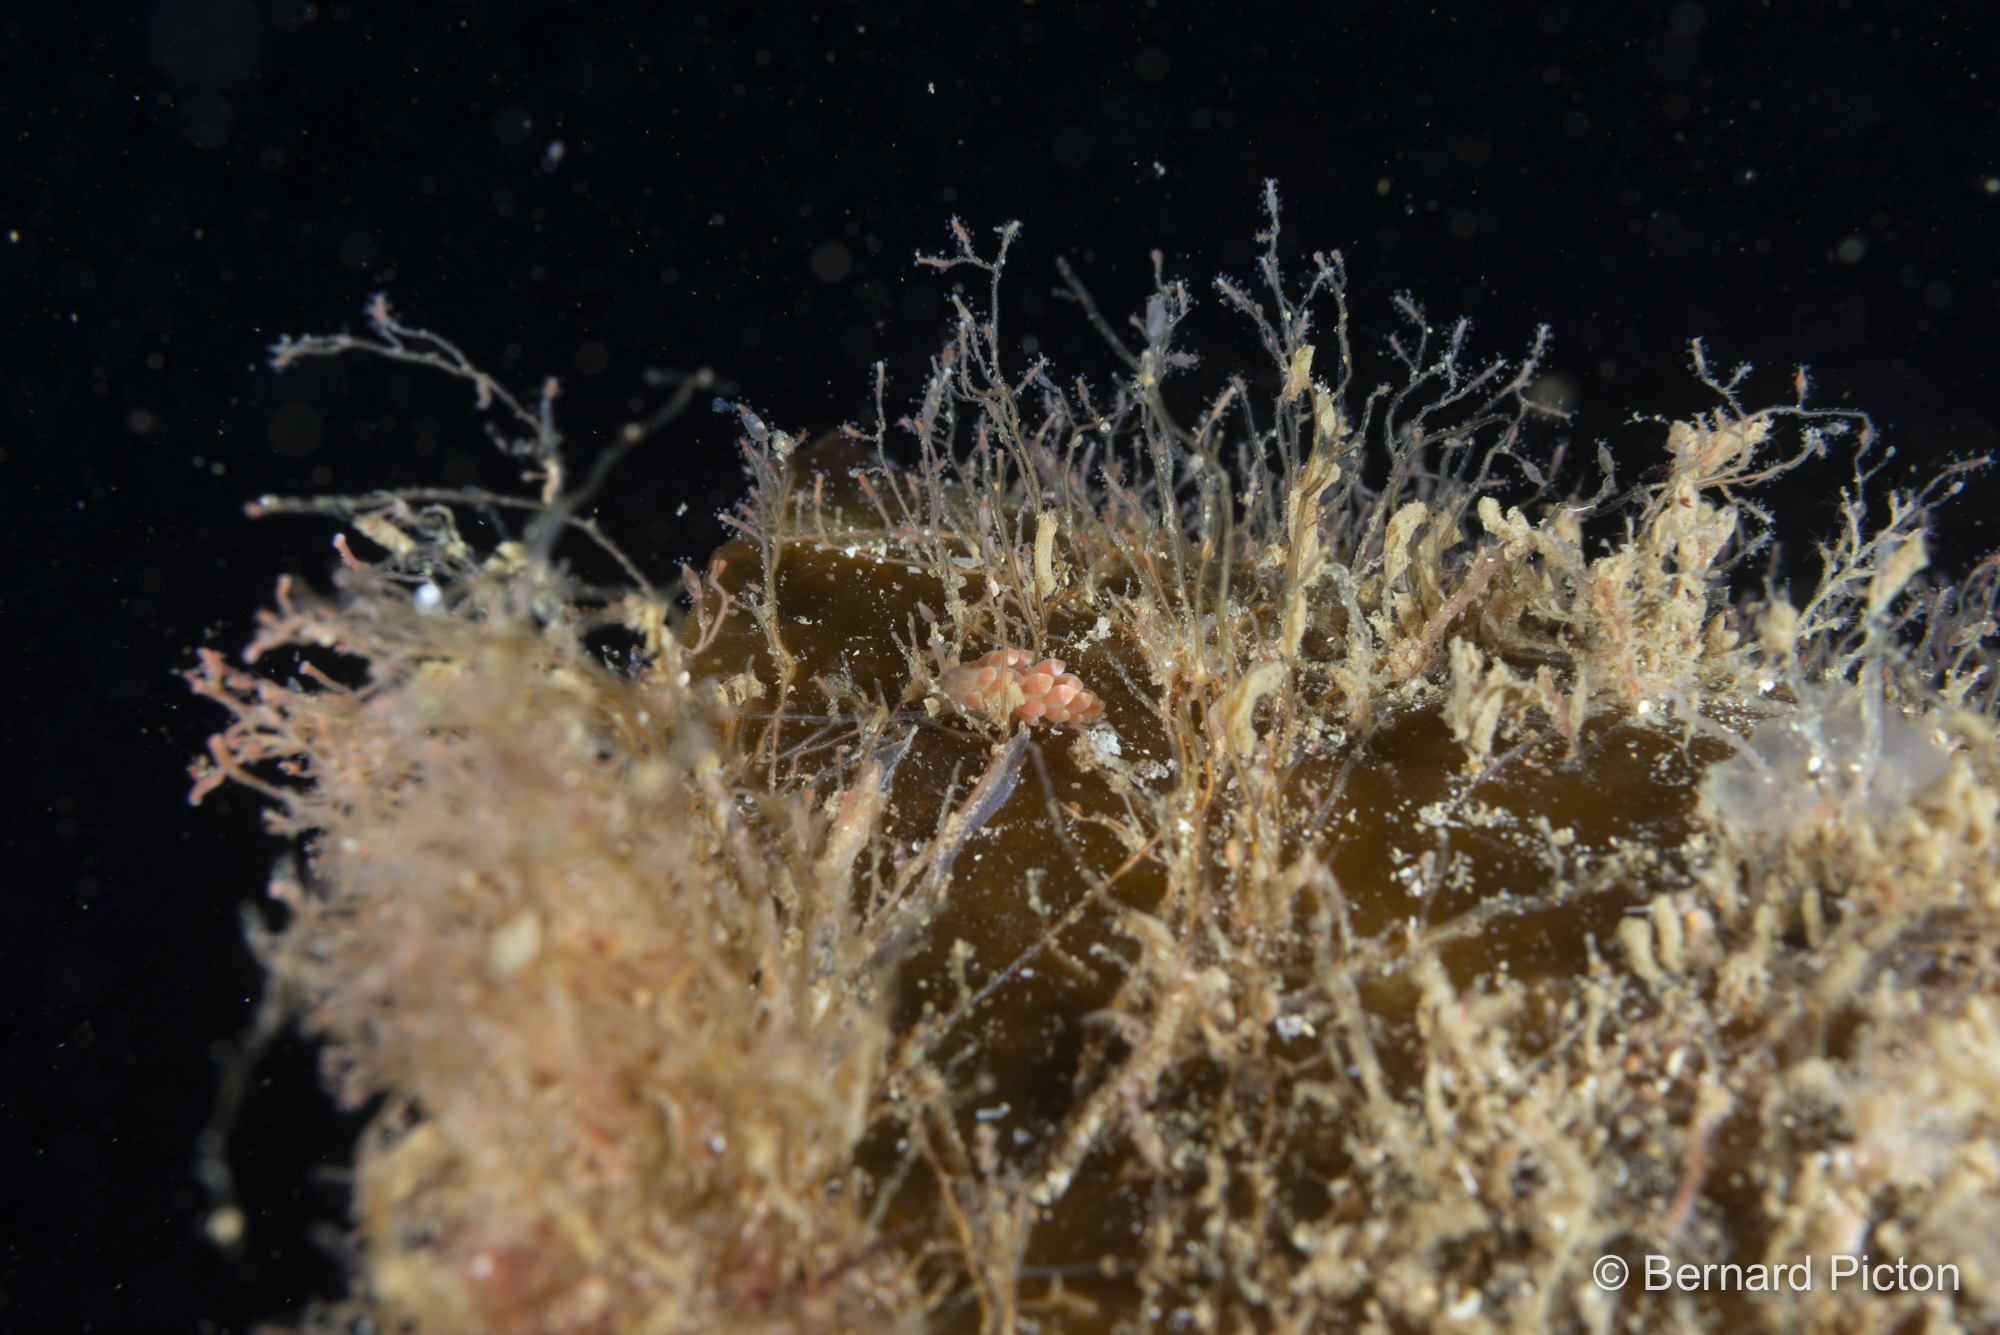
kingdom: Animalia
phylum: Mollusca
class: Gastropoda
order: Nudibranchia
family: Trinchesiidae
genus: Catriona
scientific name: Catriona aurantia
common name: Corange-tip cuthona
